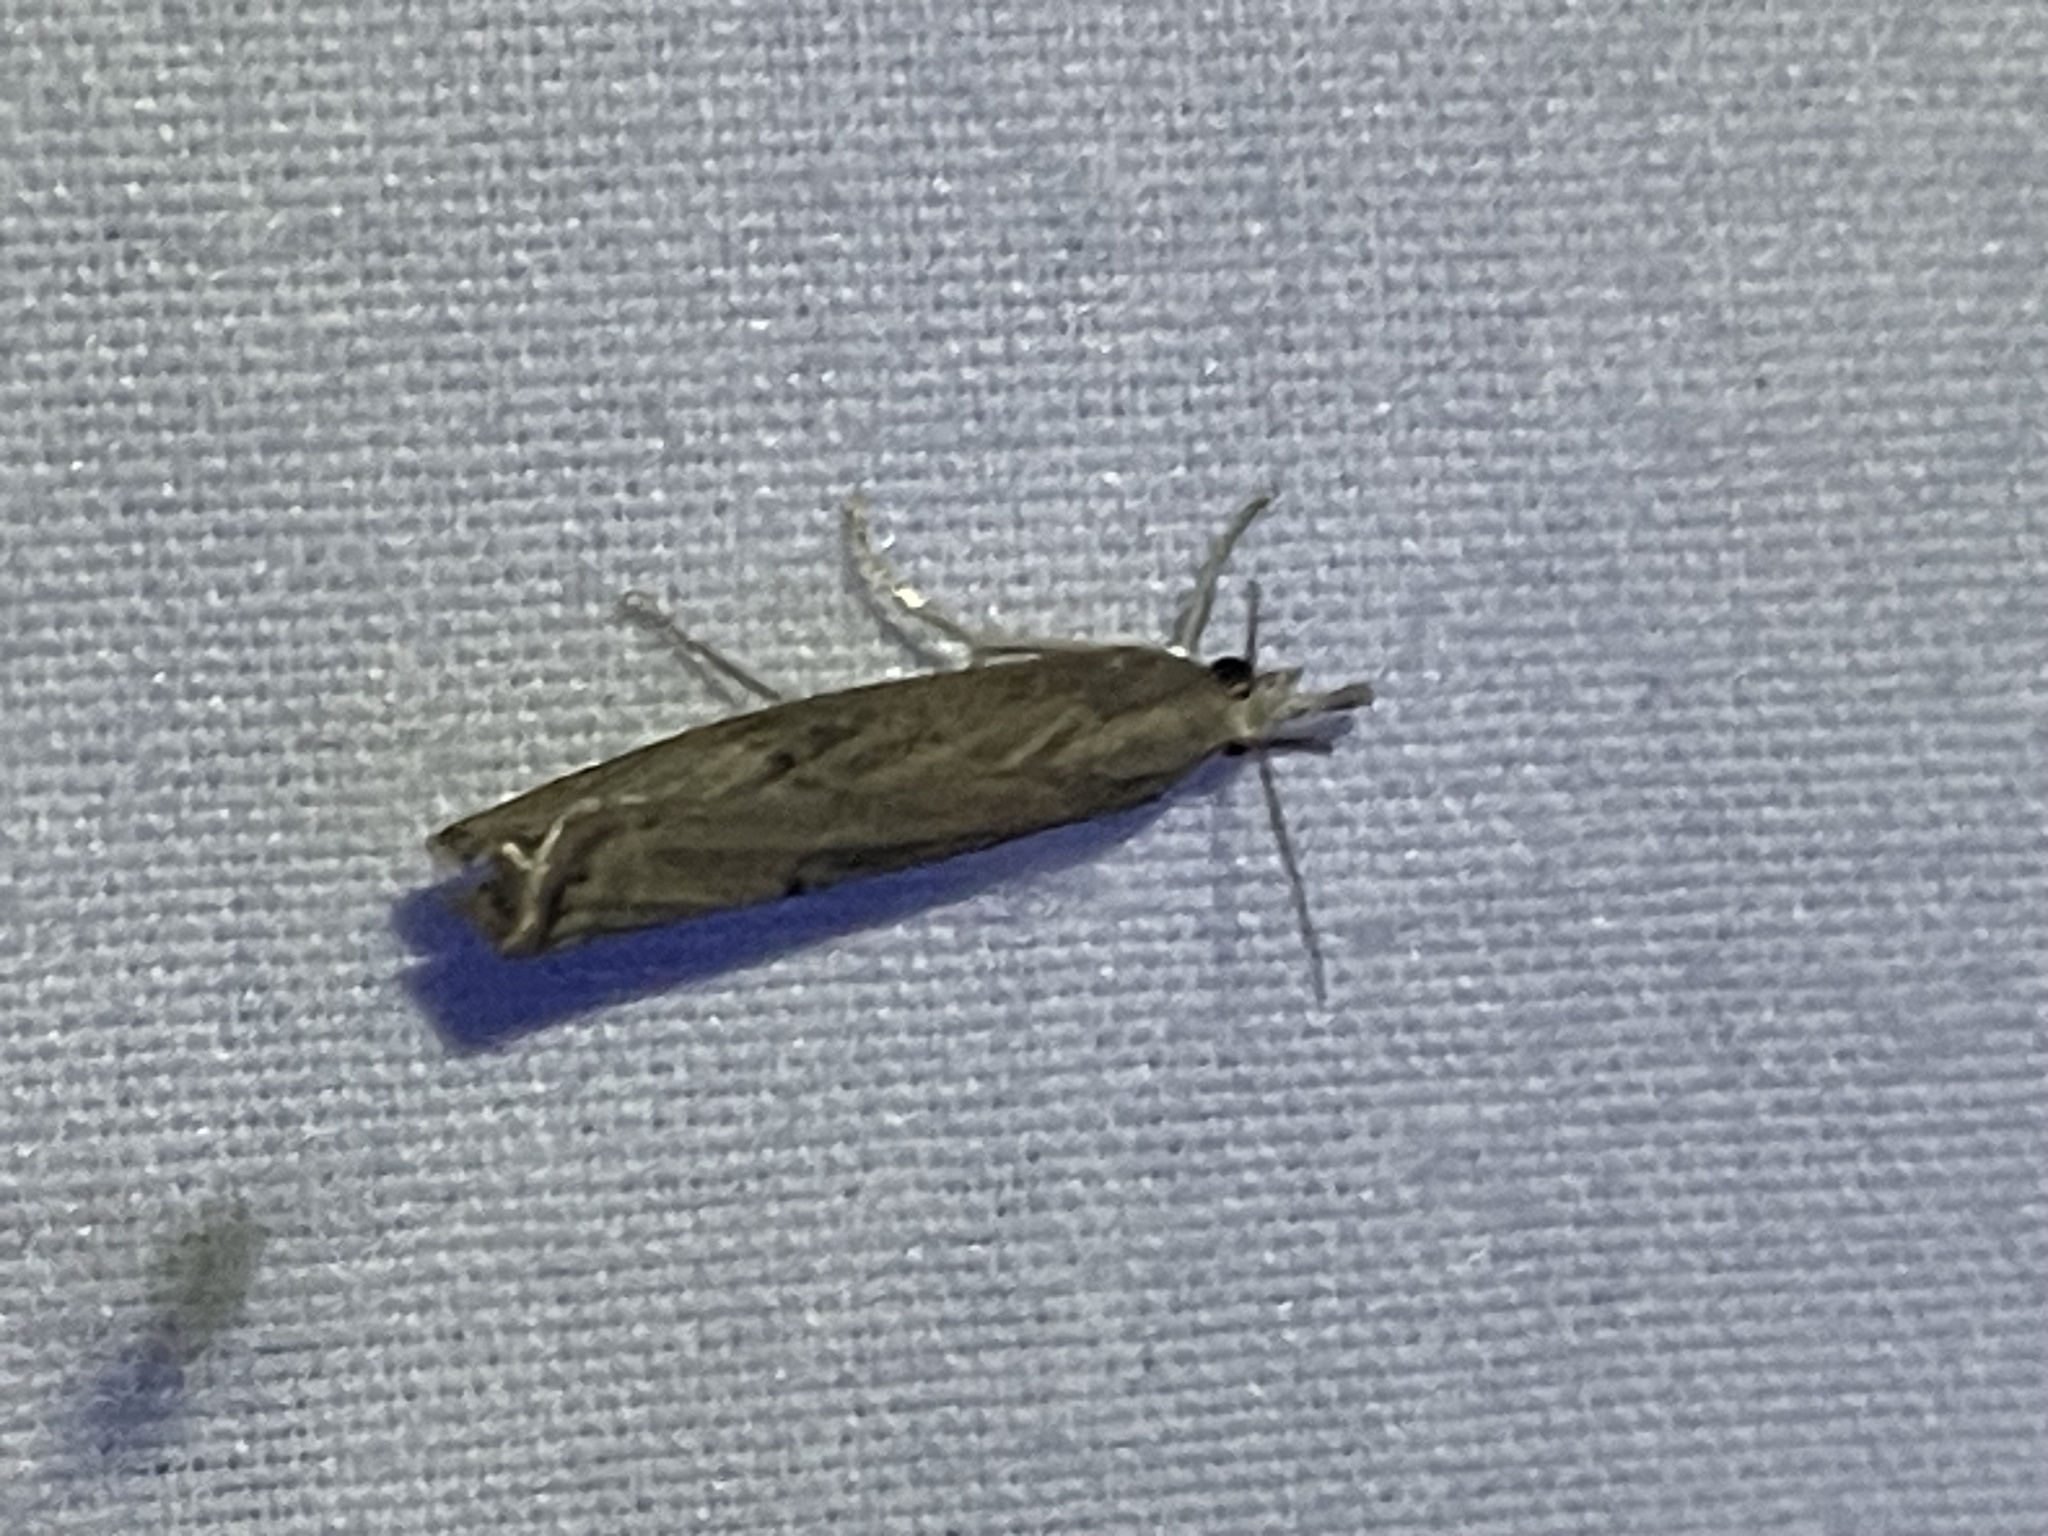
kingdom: Animalia
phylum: Arthropoda
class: Insecta
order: Lepidoptera
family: Crambidae
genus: Parapediasia
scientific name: Parapediasia teterellus
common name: Bluegrass webworm moth
